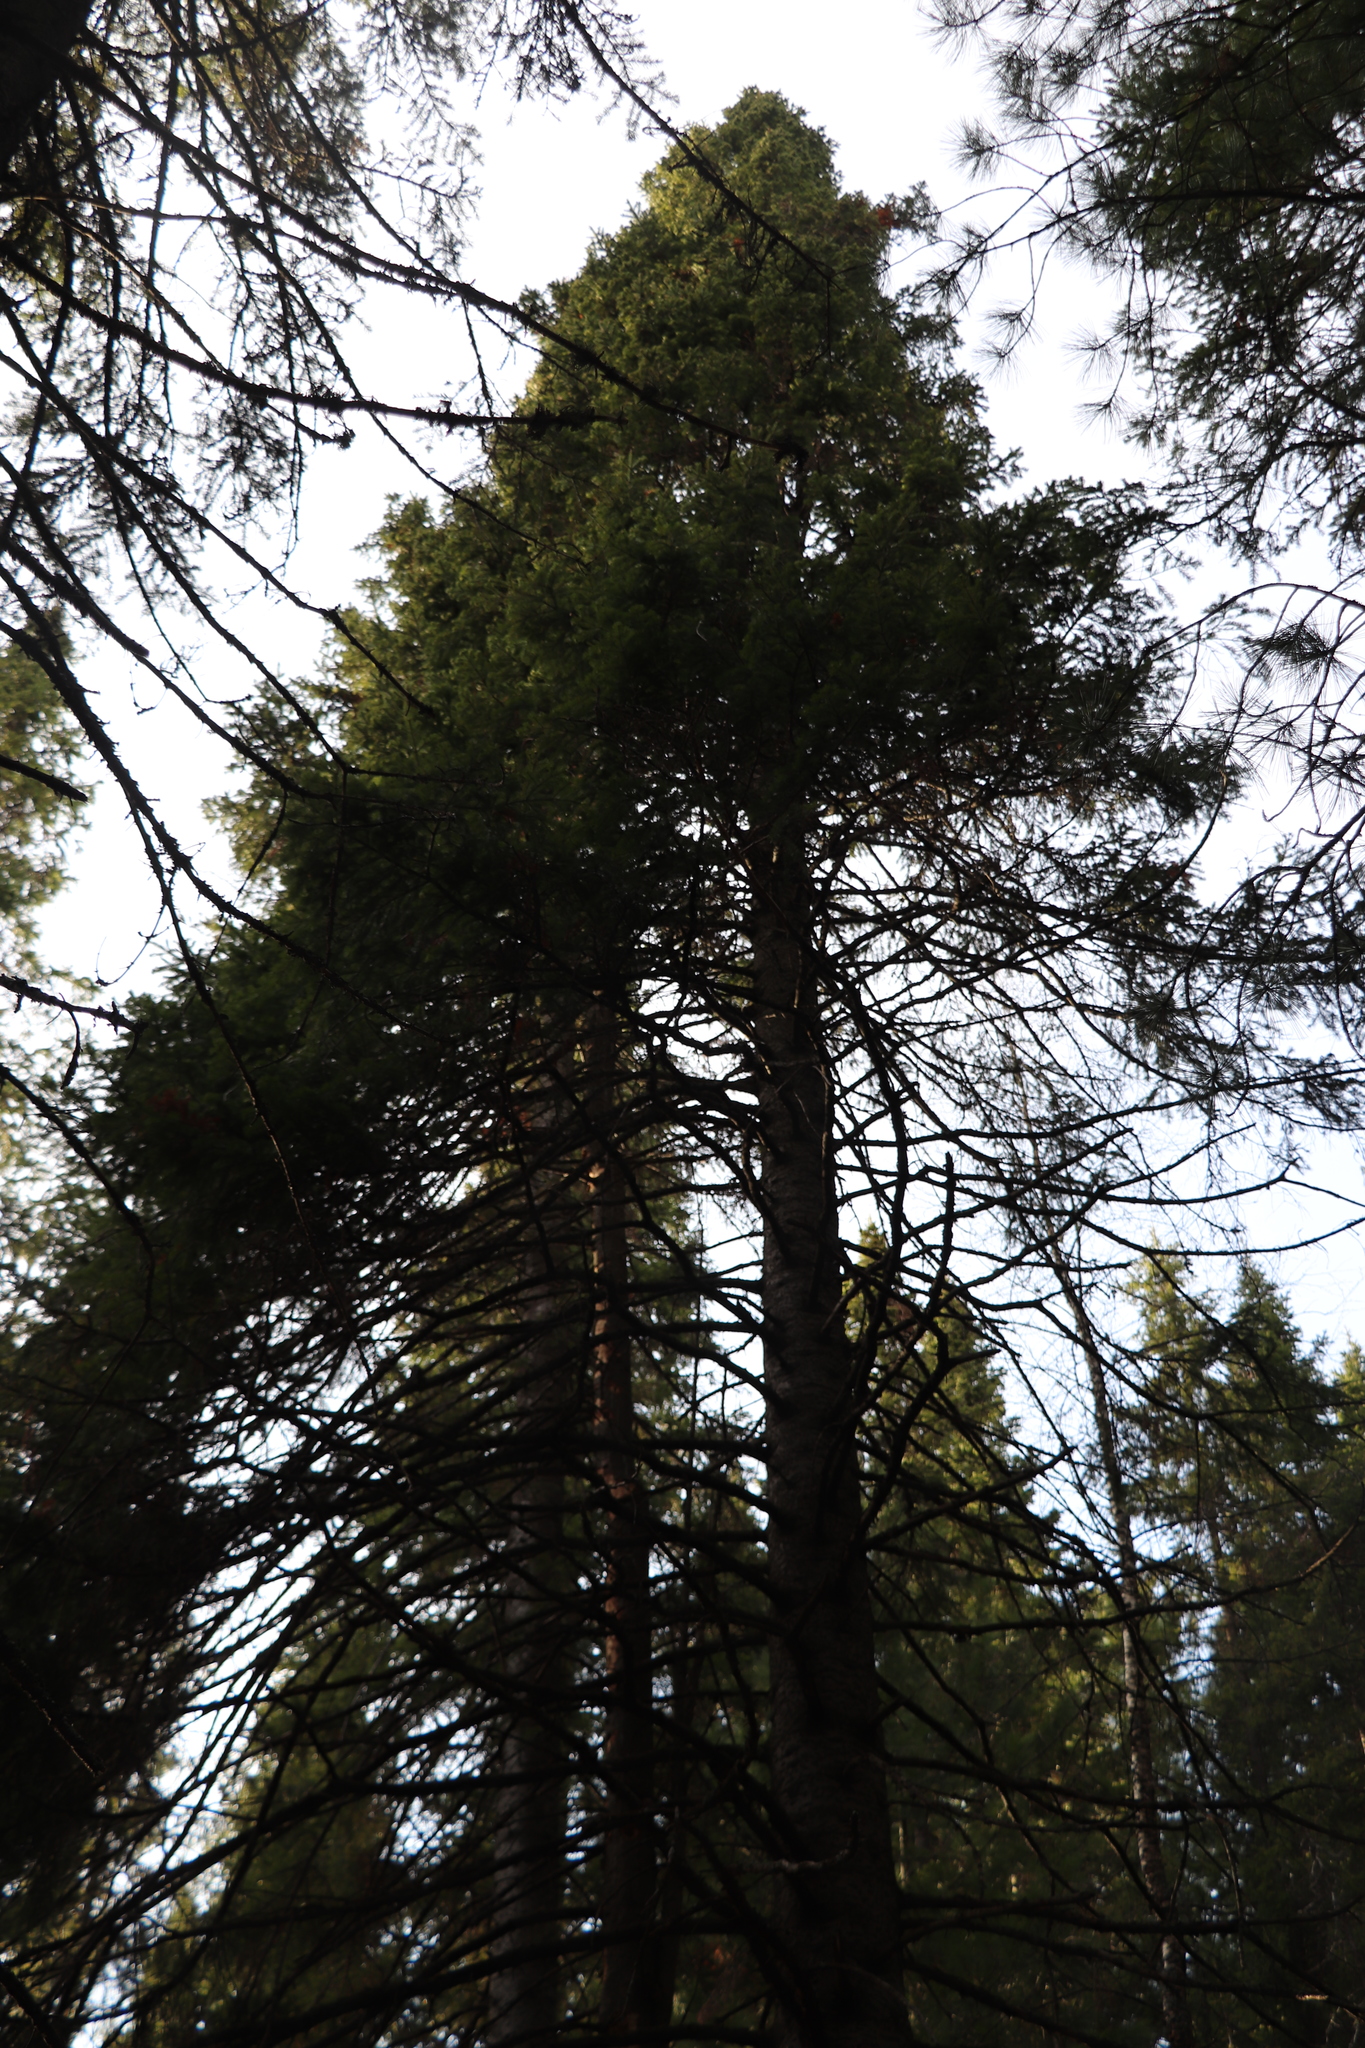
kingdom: Plantae
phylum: Tracheophyta
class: Pinopsida
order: Pinales
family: Pinaceae
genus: Abies
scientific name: Abies sibirica
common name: Siberian fir
